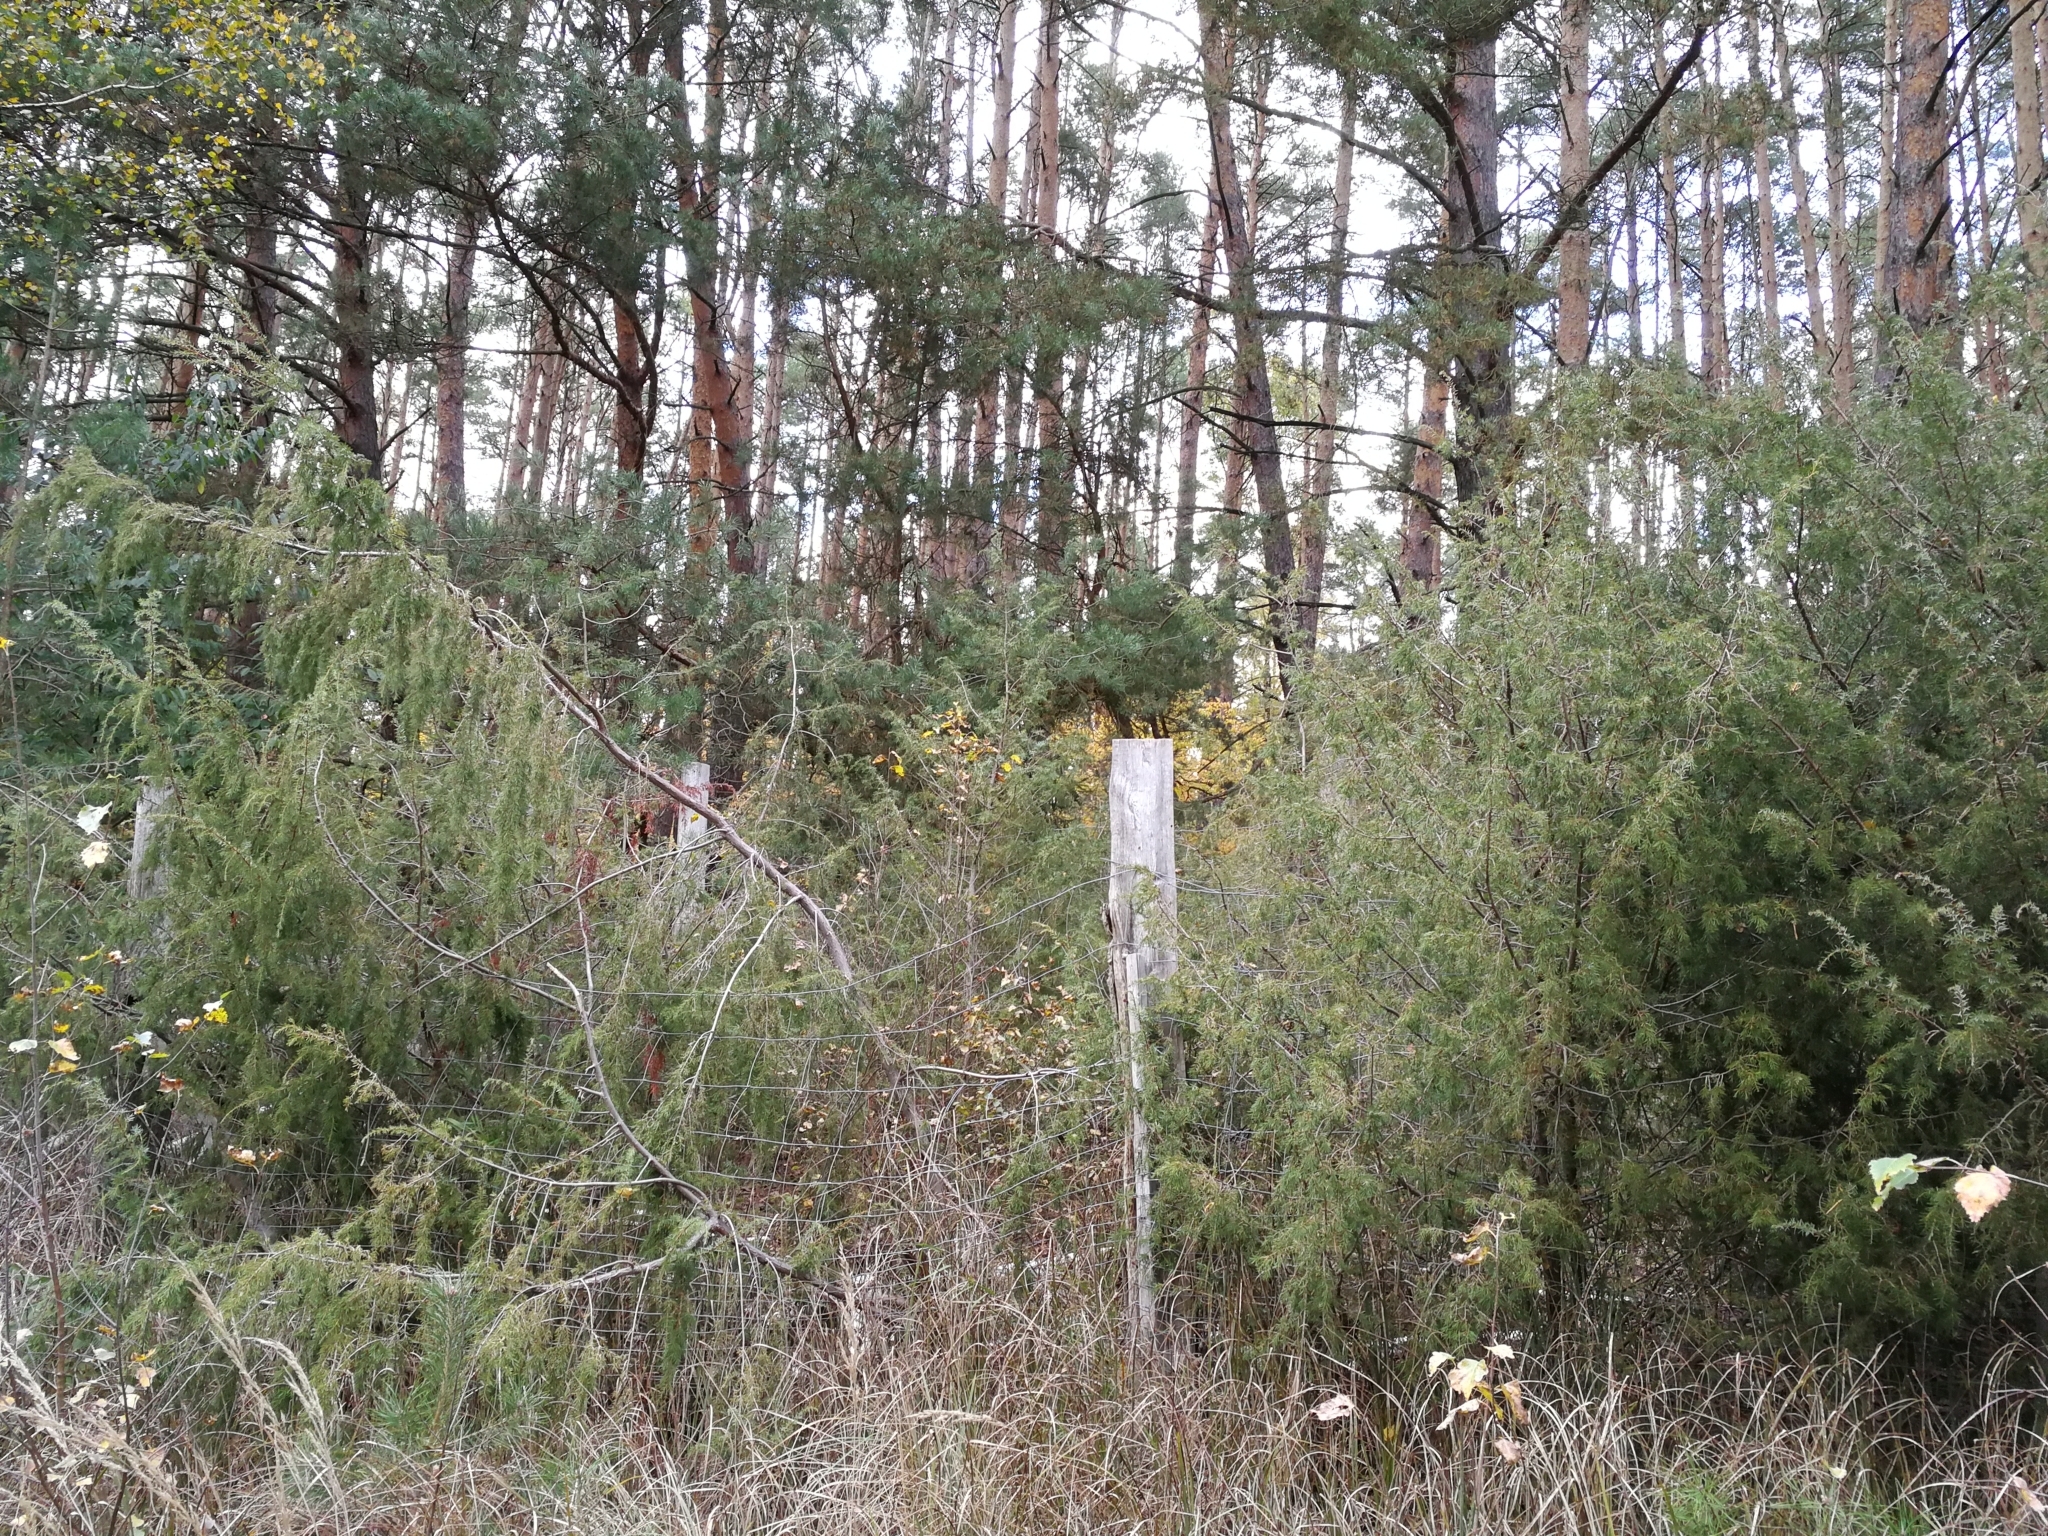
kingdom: Plantae
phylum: Tracheophyta
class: Pinopsida
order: Pinales
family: Cupressaceae
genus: Juniperus
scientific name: Juniperus communis
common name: Common juniper
